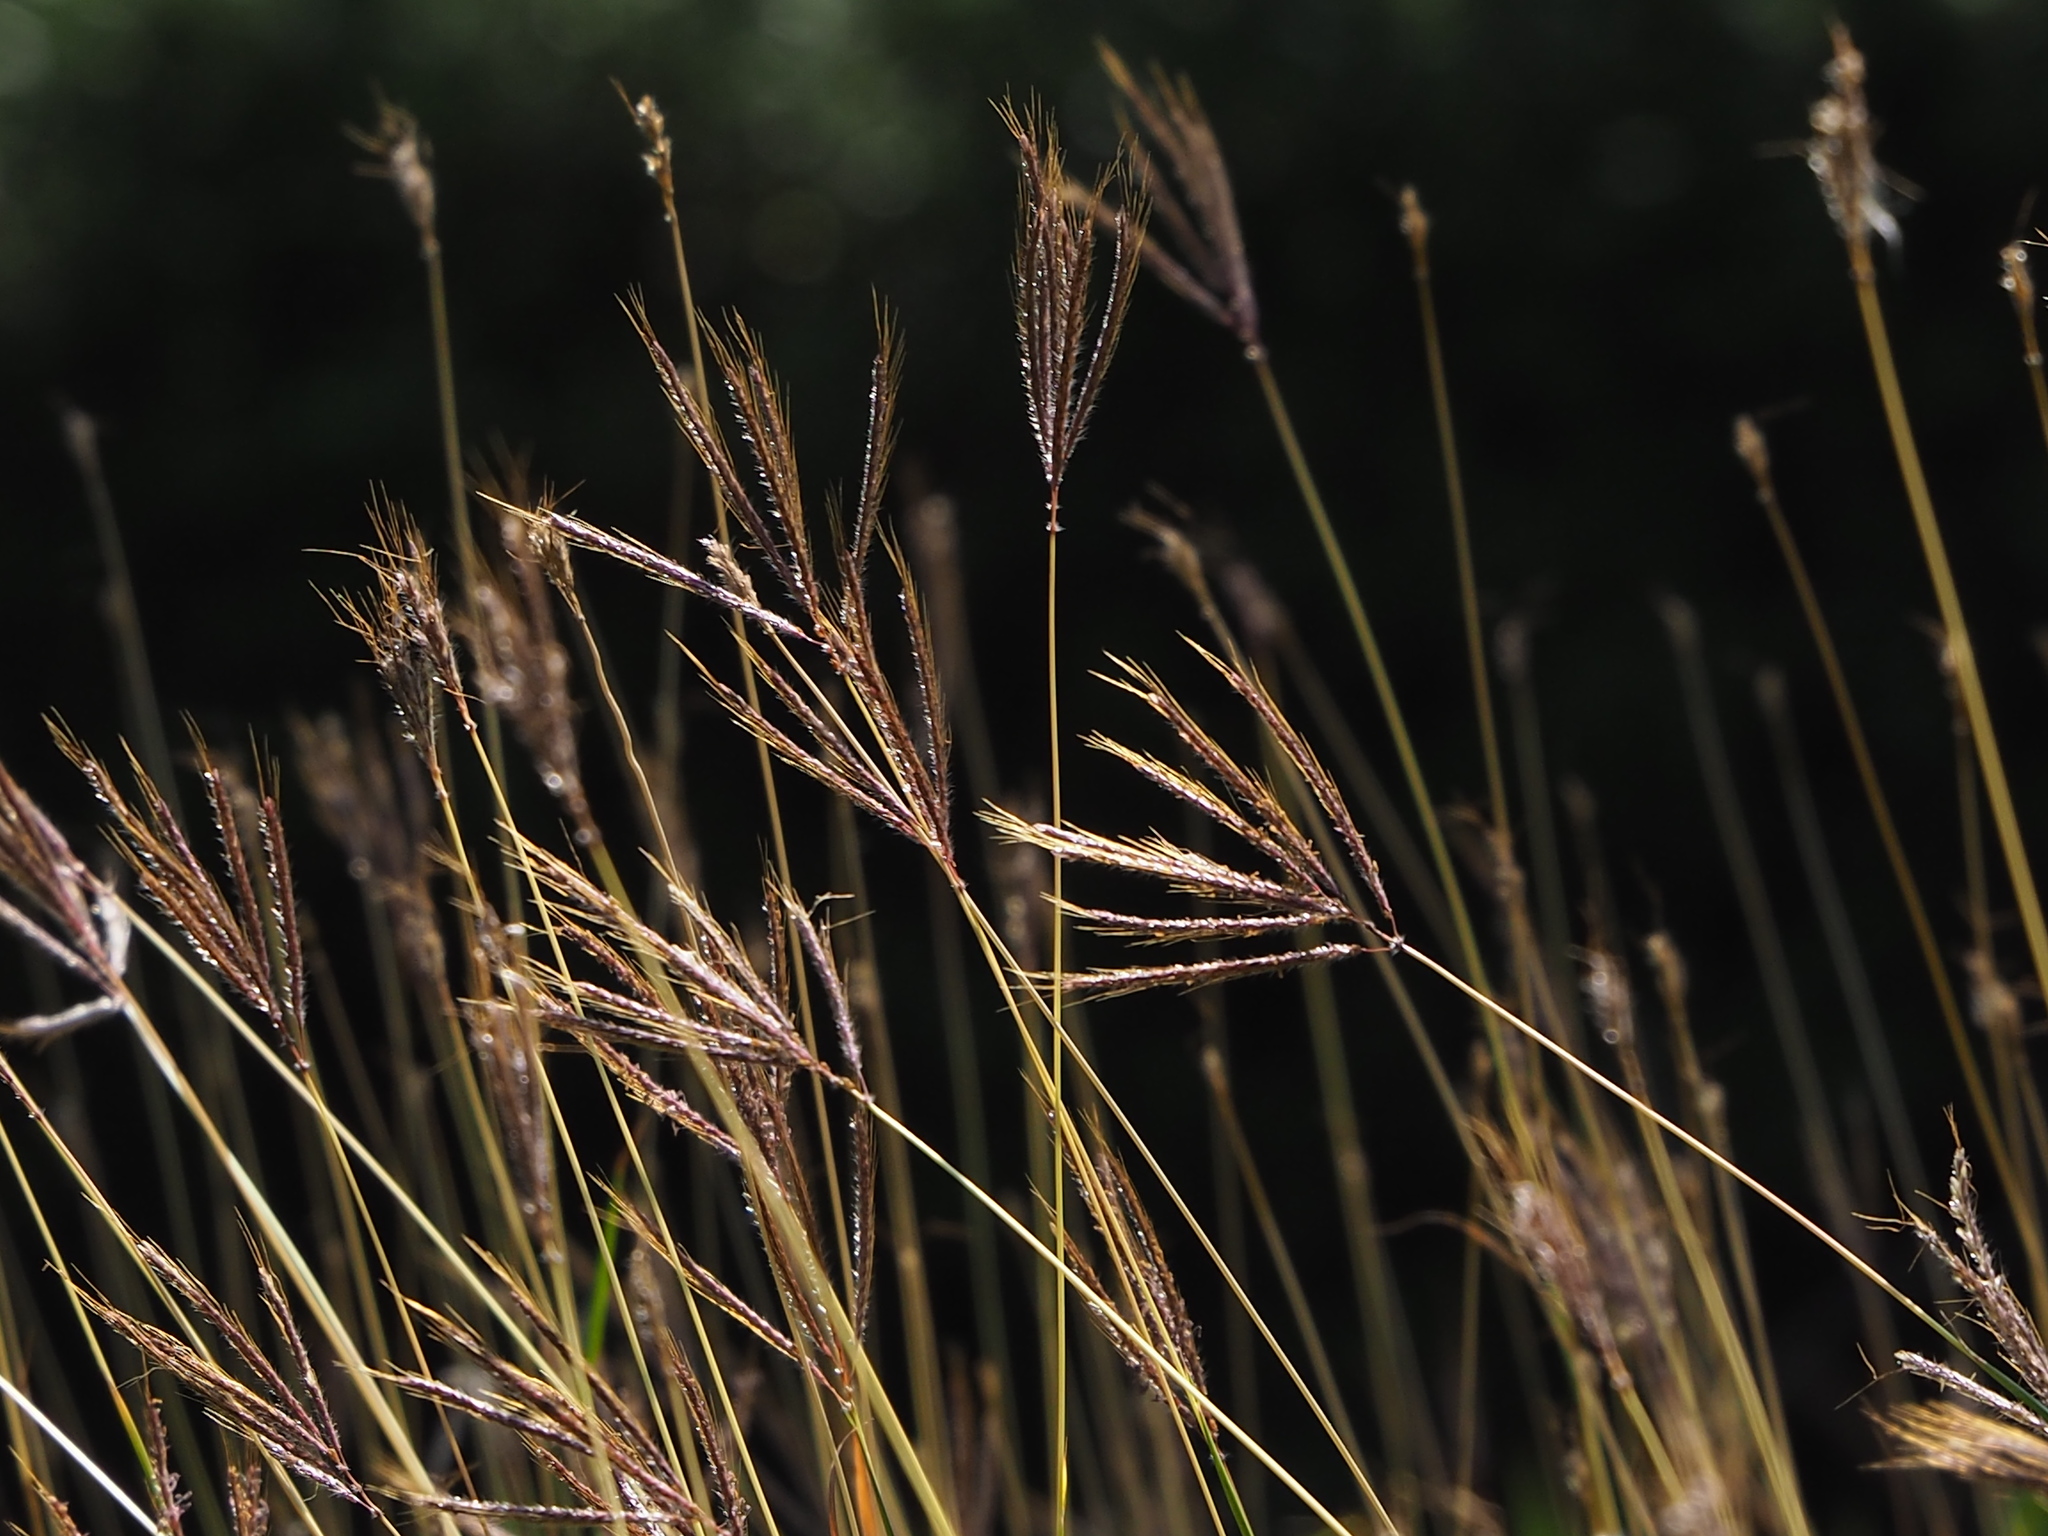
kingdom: Plantae
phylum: Tracheophyta
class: Liliopsida
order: Poales
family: Poaceae
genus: Dichanthium
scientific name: Dichanthium annulatum
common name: Kleberg's bluestem
